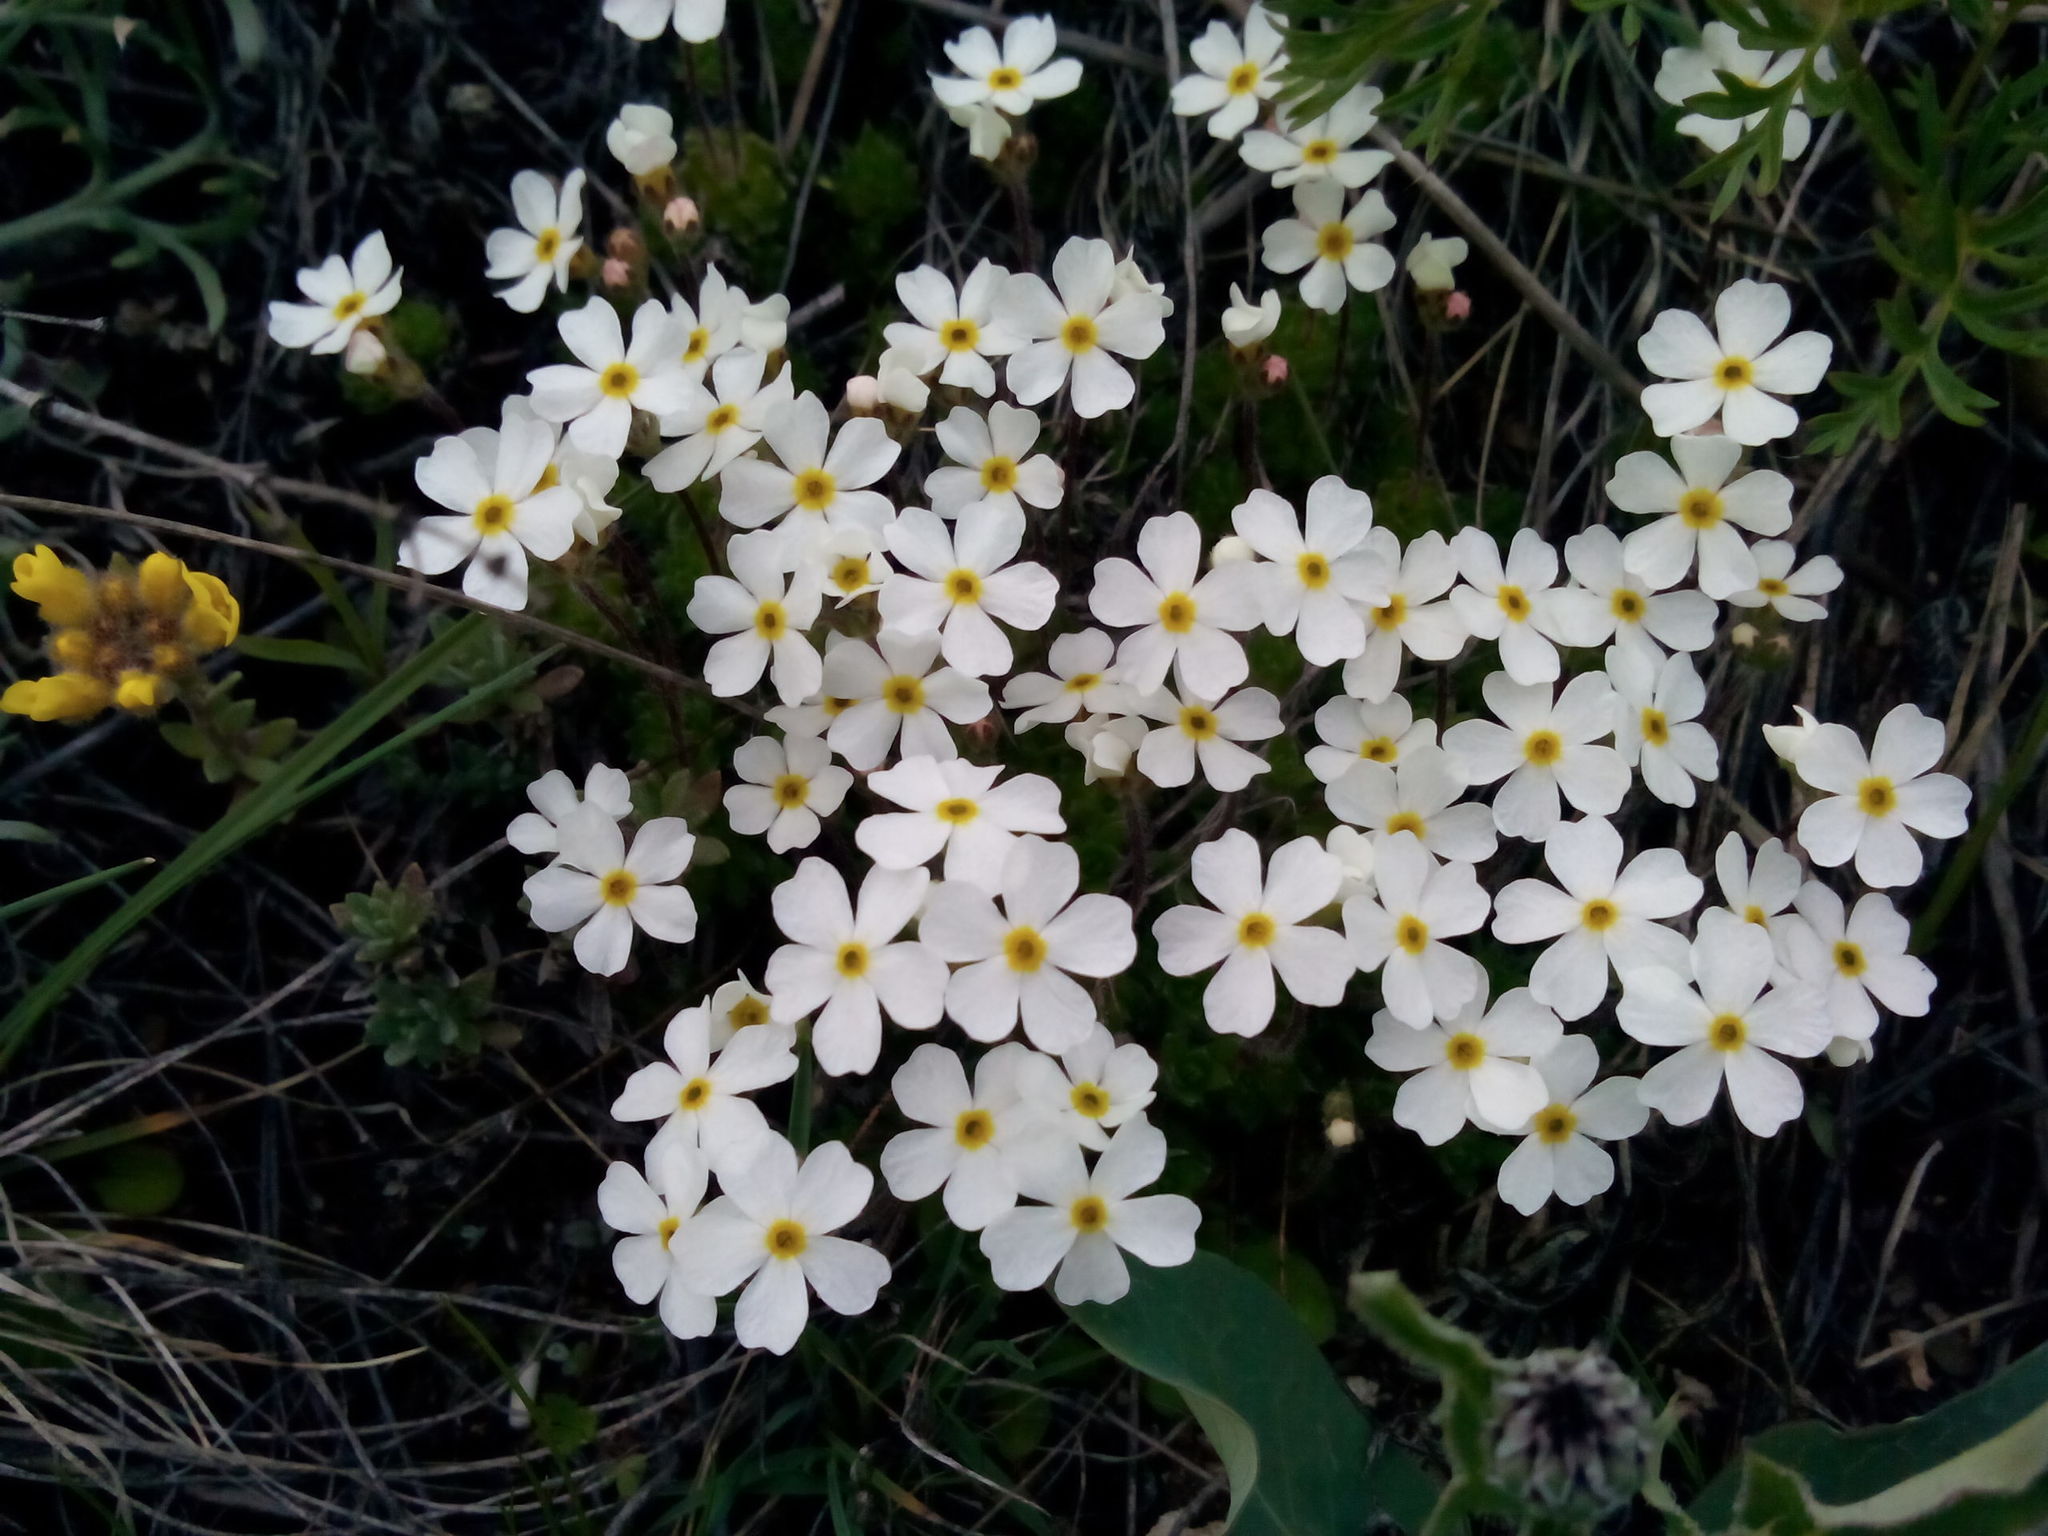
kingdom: Plantae
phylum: Tracheophyta
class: Magnoliopsida
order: Ericales
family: Primulaceae
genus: Androsace
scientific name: Androsace bungeana
